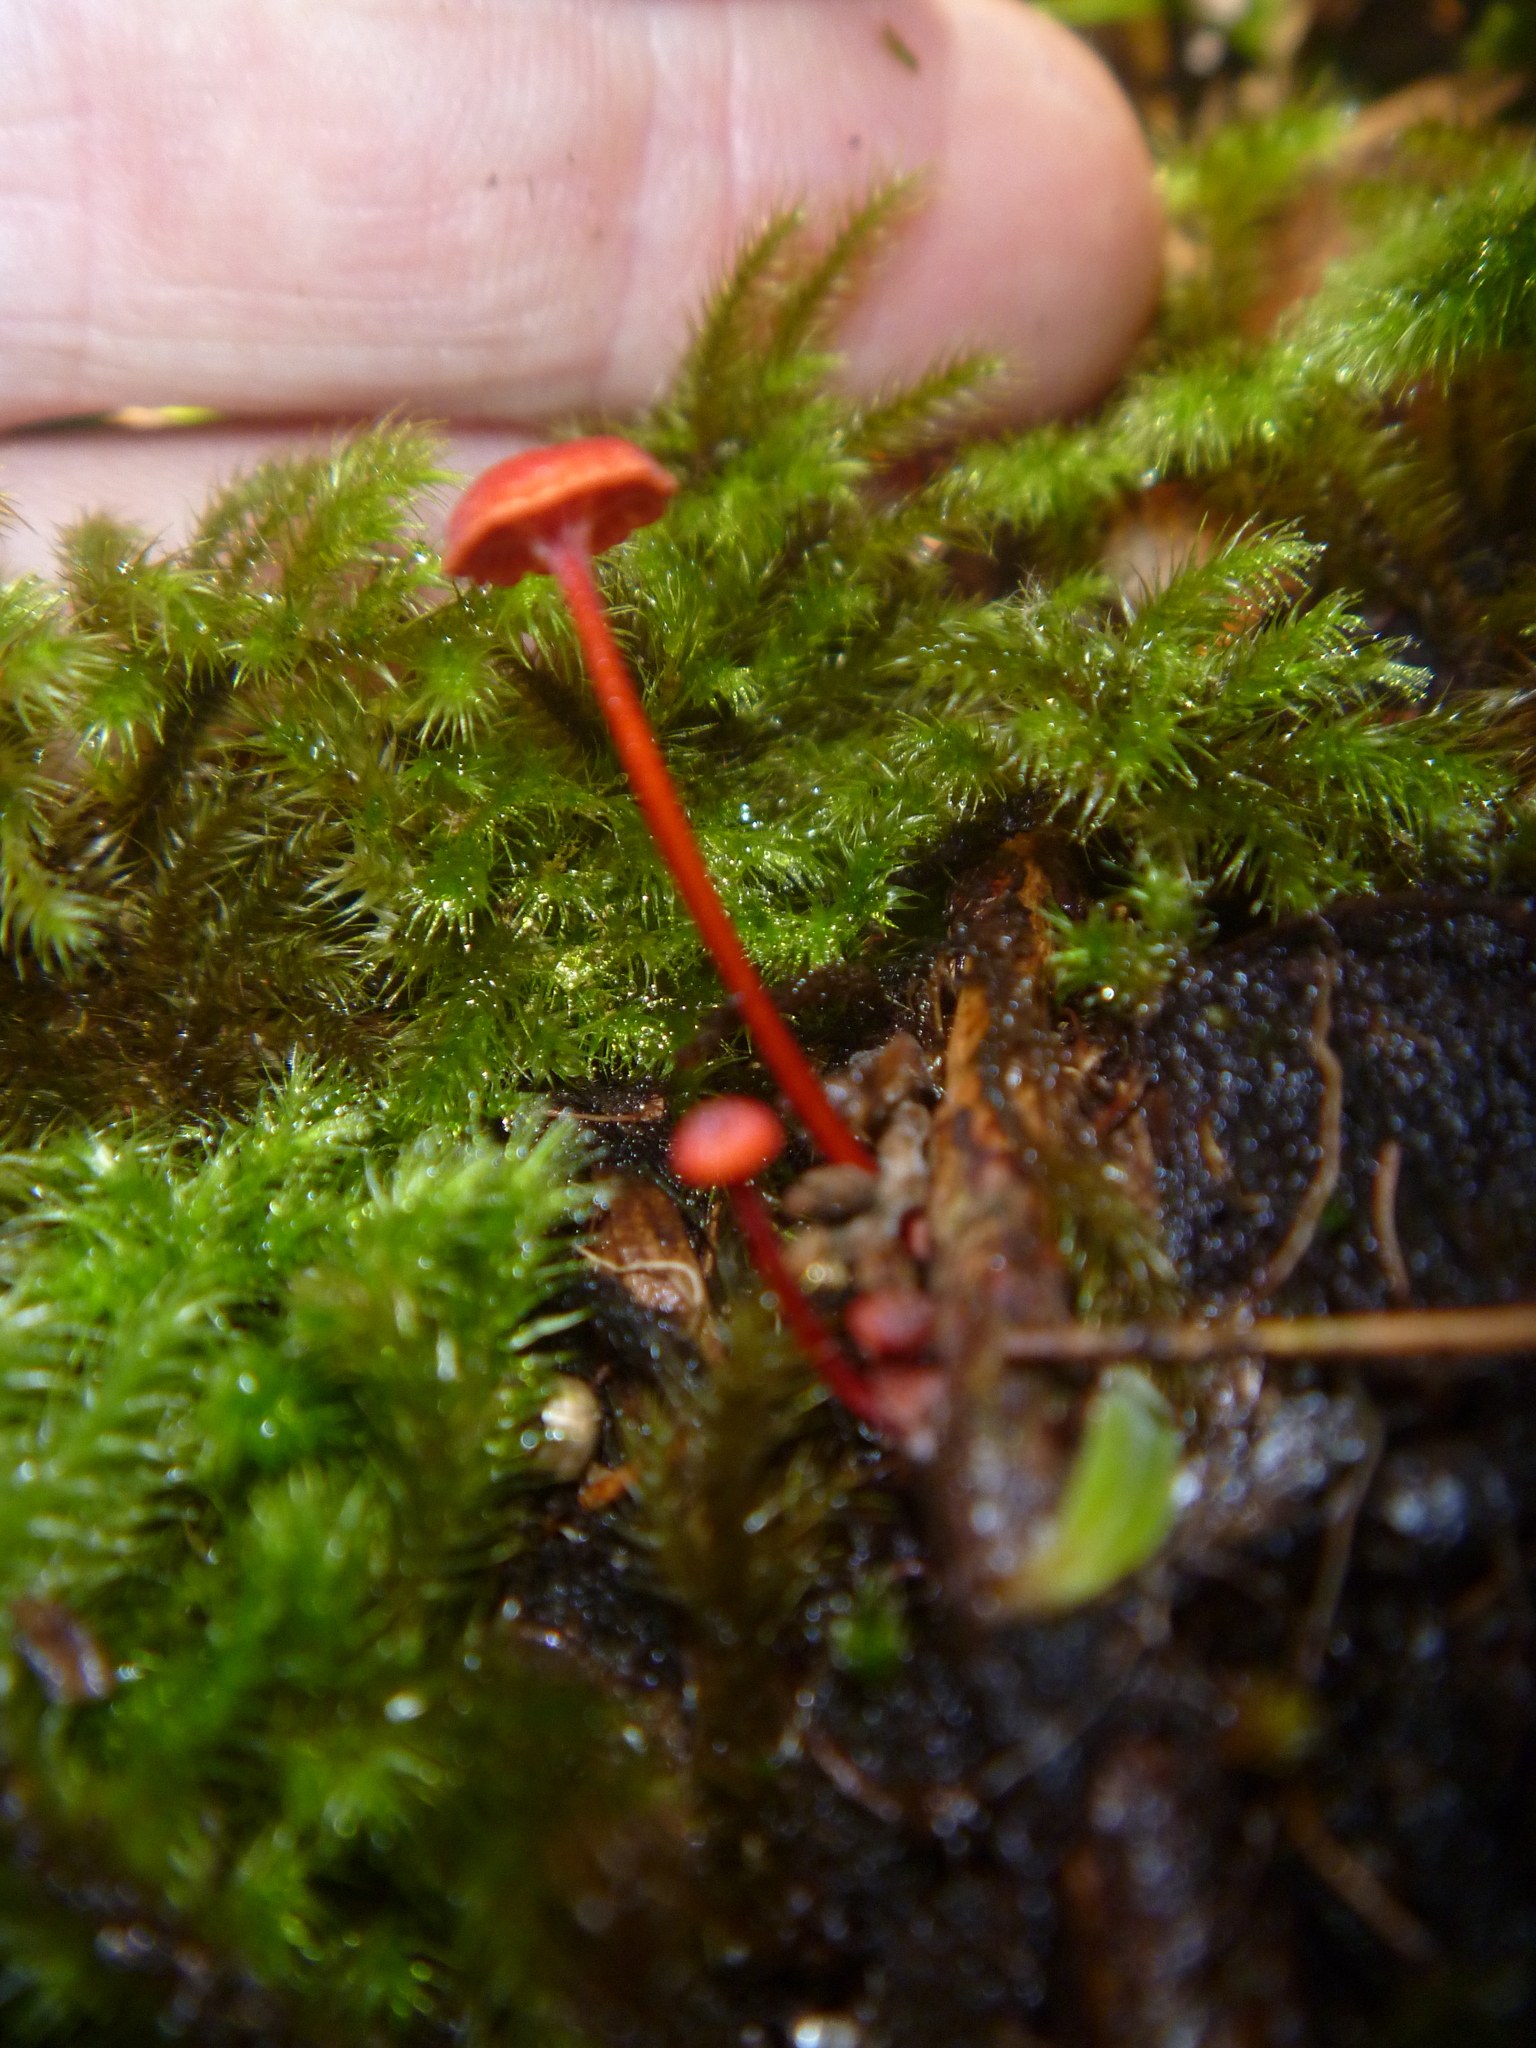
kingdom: Fungi
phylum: Basidiomycota
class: Agaricomycetes
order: Agaricales
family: Mycenaceae
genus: Cruentomycena
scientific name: Cruentomycena viscidocruenta
